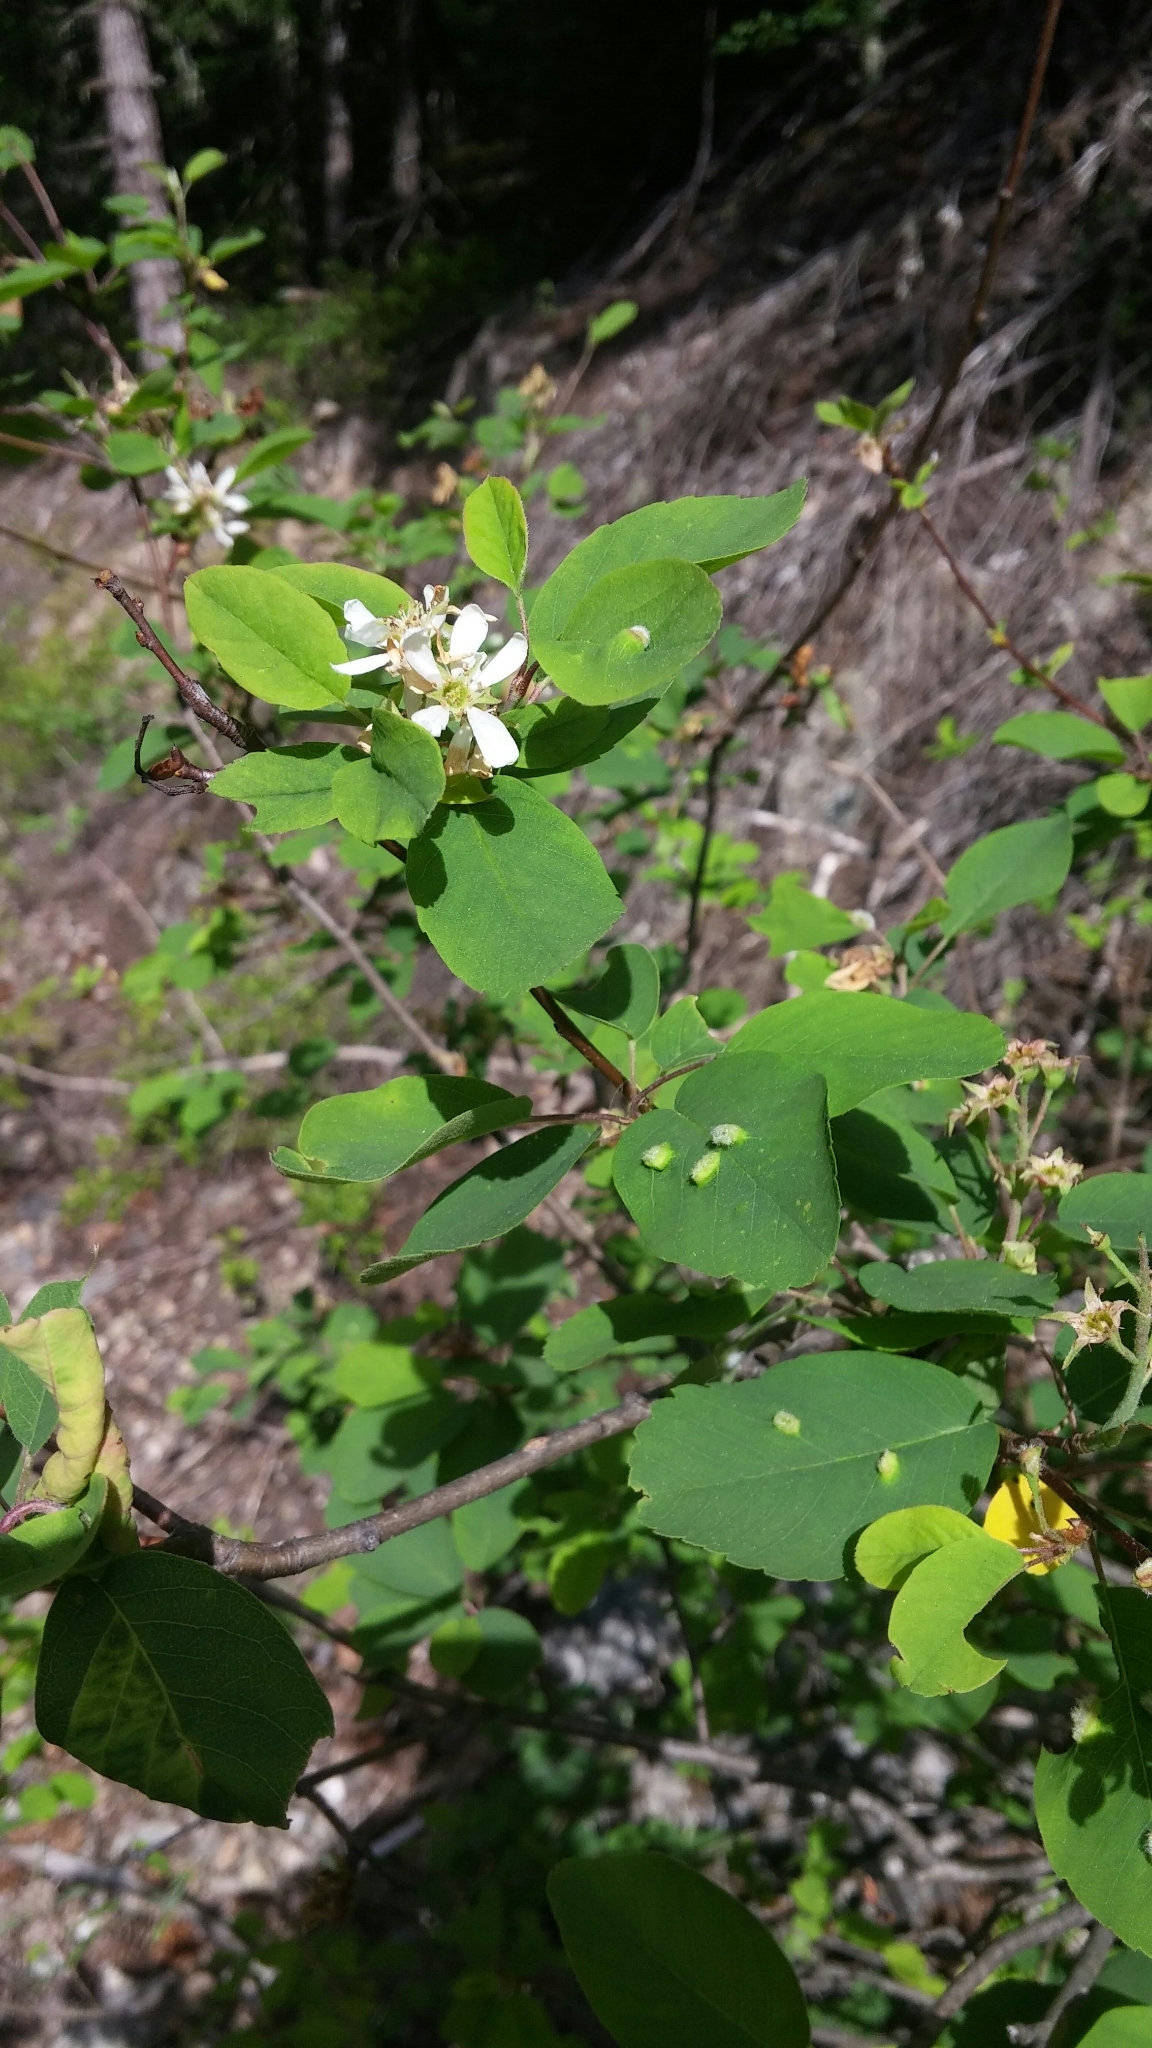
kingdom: Plantae
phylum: Tracheophyta
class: Magnoliopsida
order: Rosales
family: Rosaceae
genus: Amelanchier
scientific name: Amelanchier alnifolia
